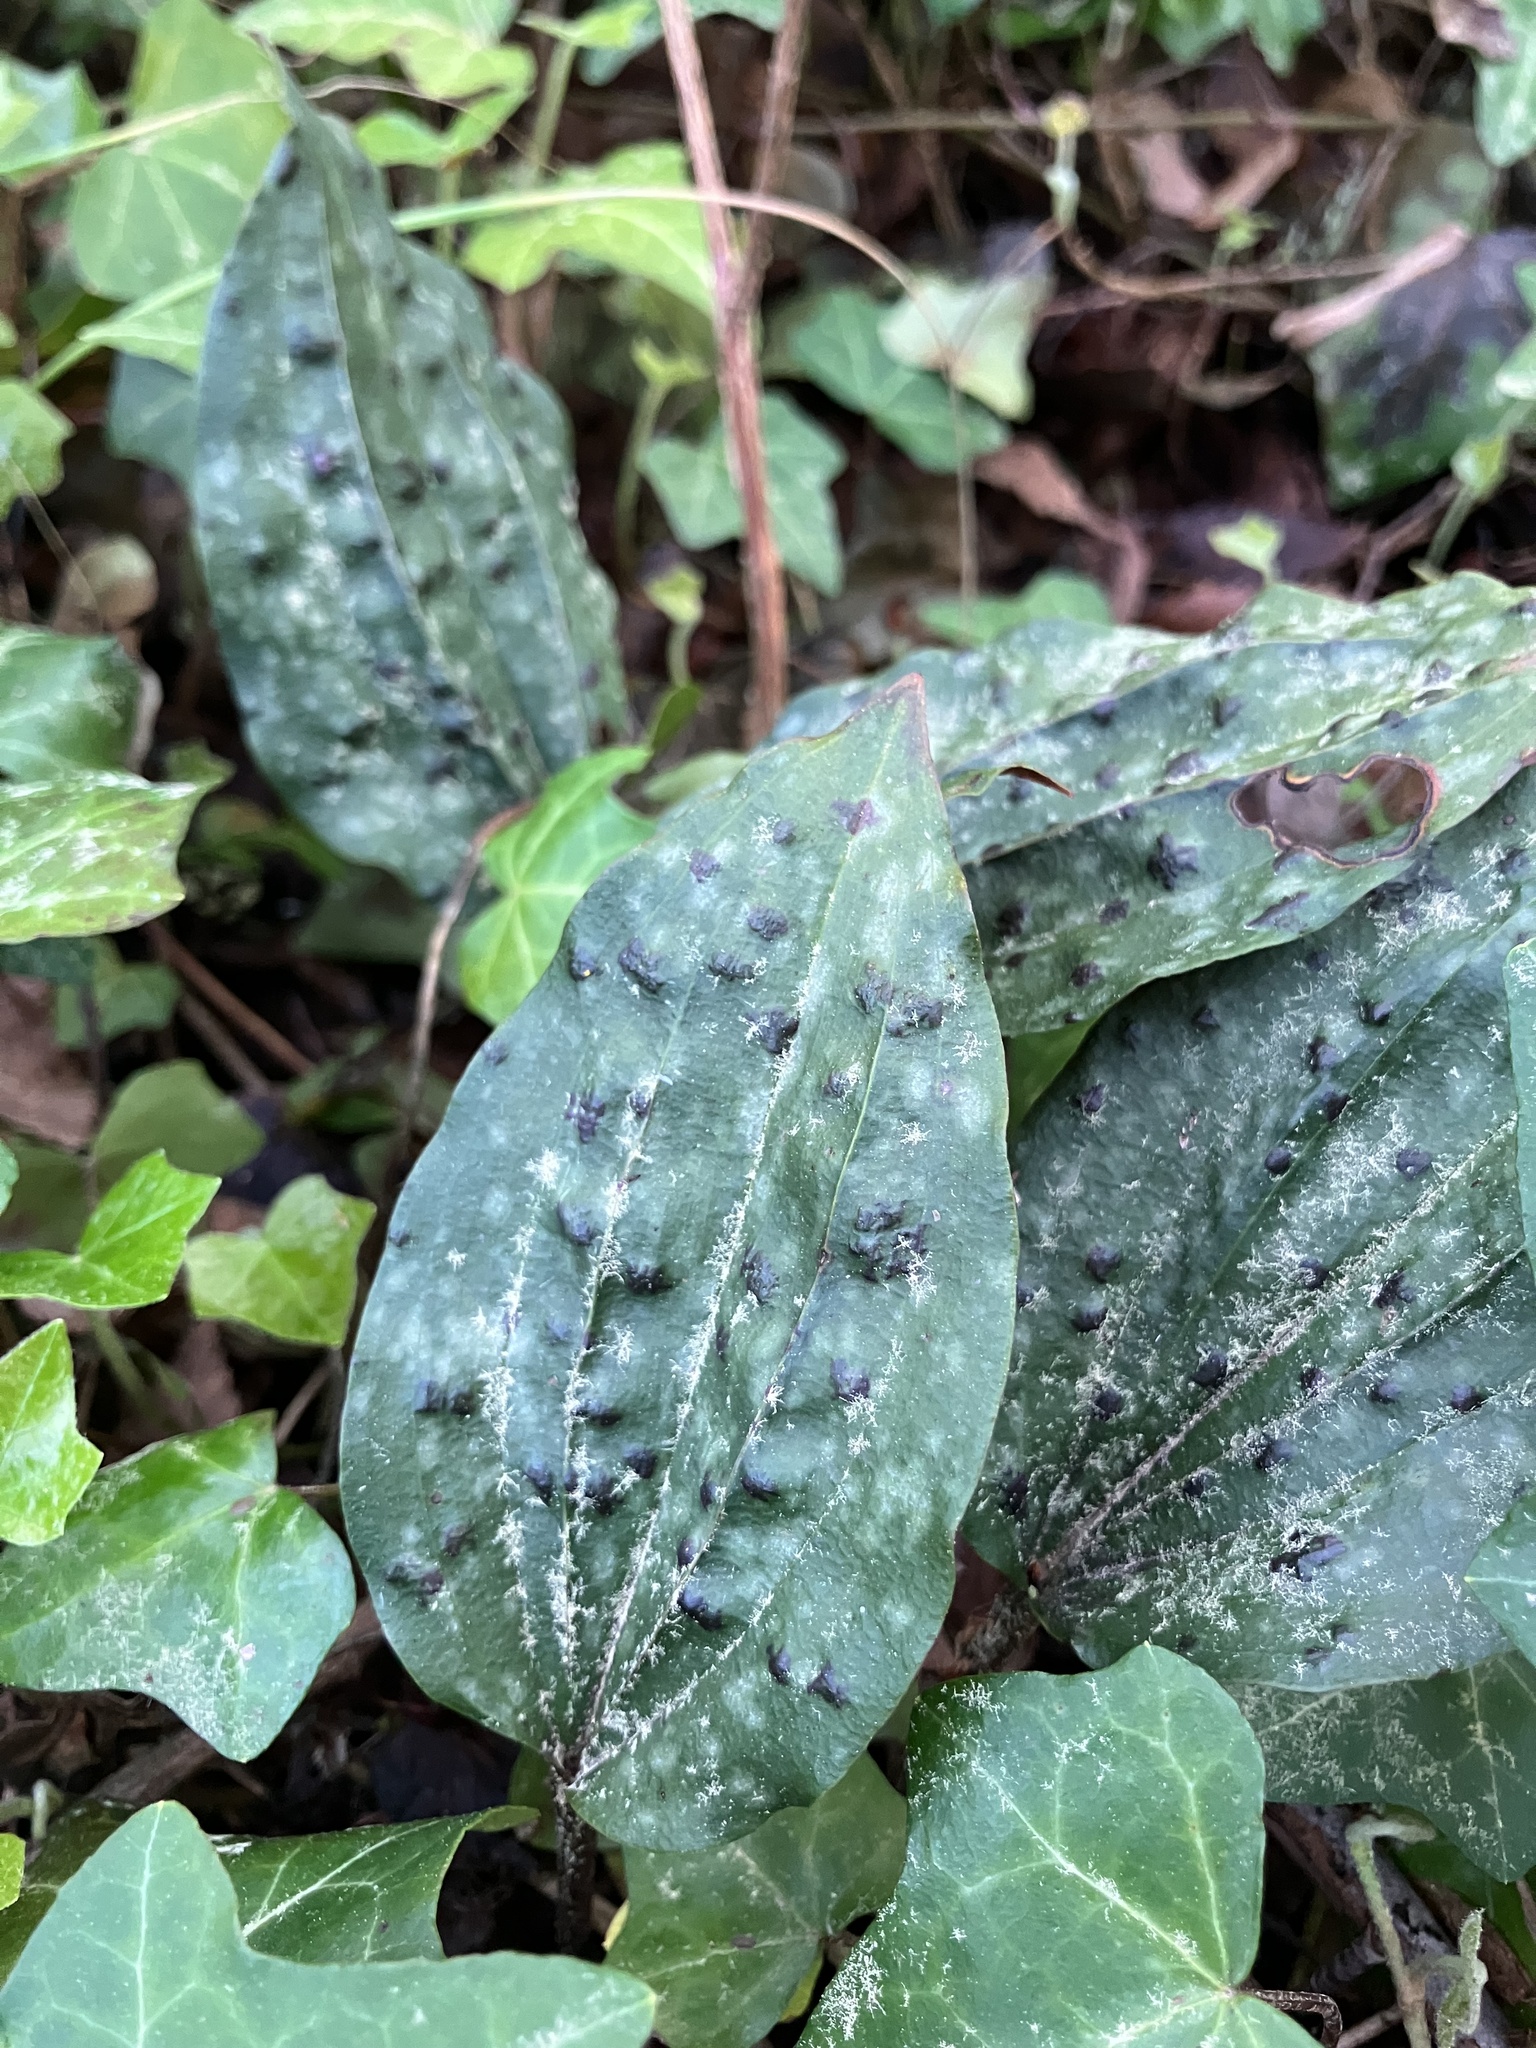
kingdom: Plantae
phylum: Tracheophyta
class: Liliopsida
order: Asparagales
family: Orchidaceae
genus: Tipularia
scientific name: Tipularia discolor
